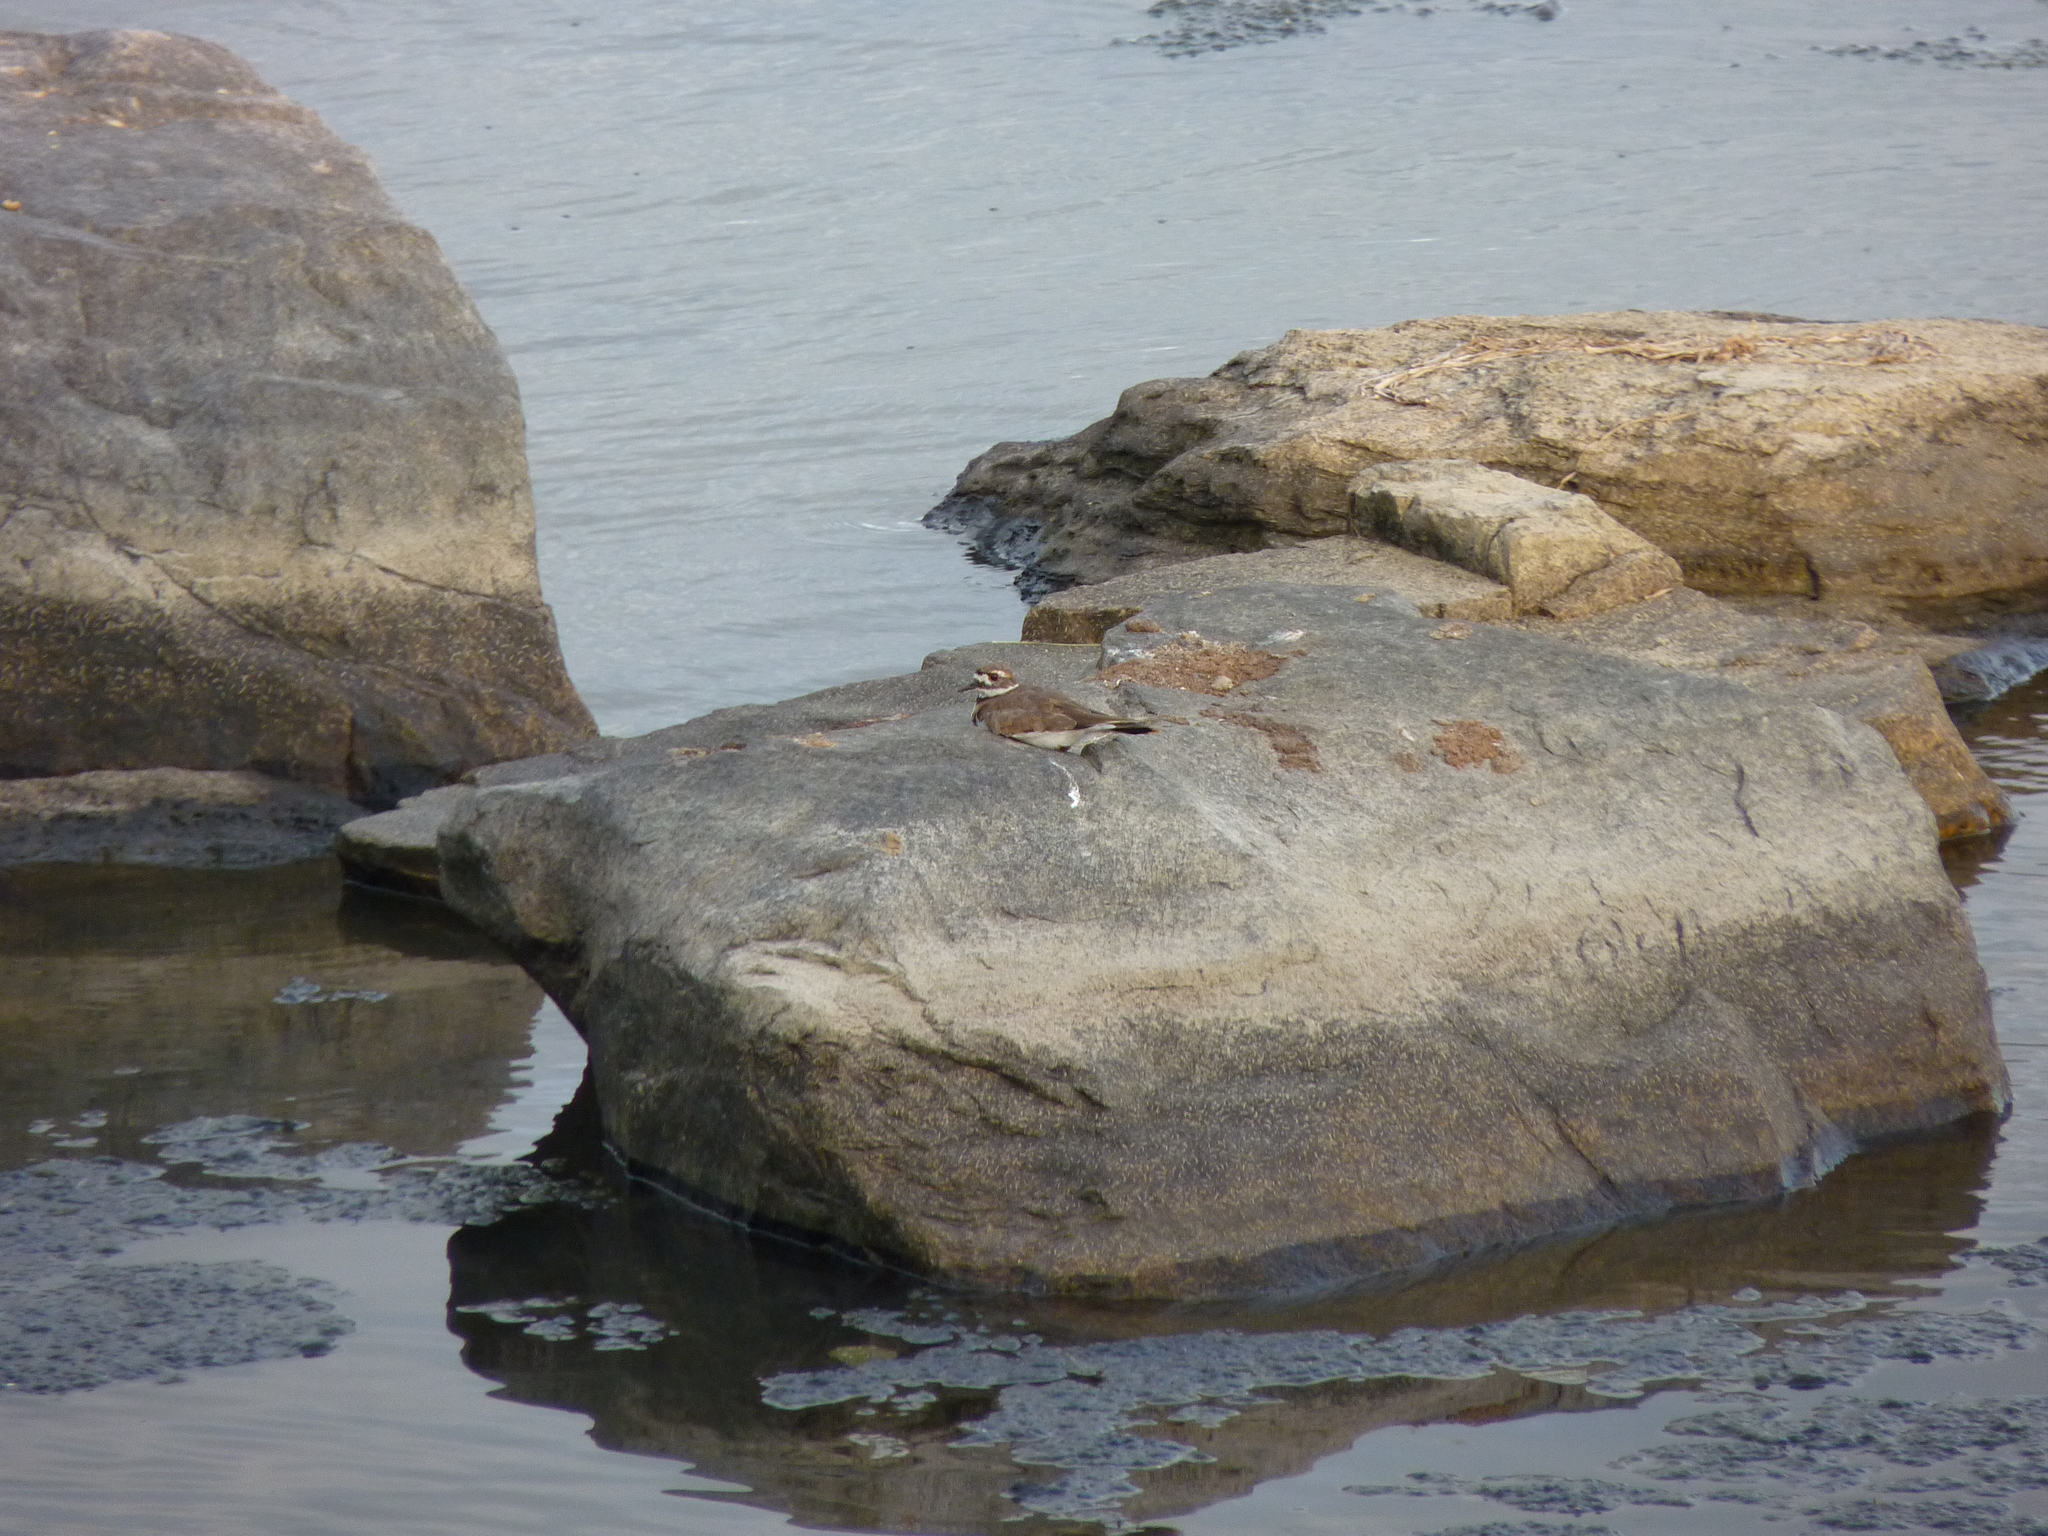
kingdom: Animalia
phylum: Chordata
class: Aves
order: Charadriiformes
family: Charadriidae
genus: Charadrius
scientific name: Charadrius vociferus
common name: Killdeer
